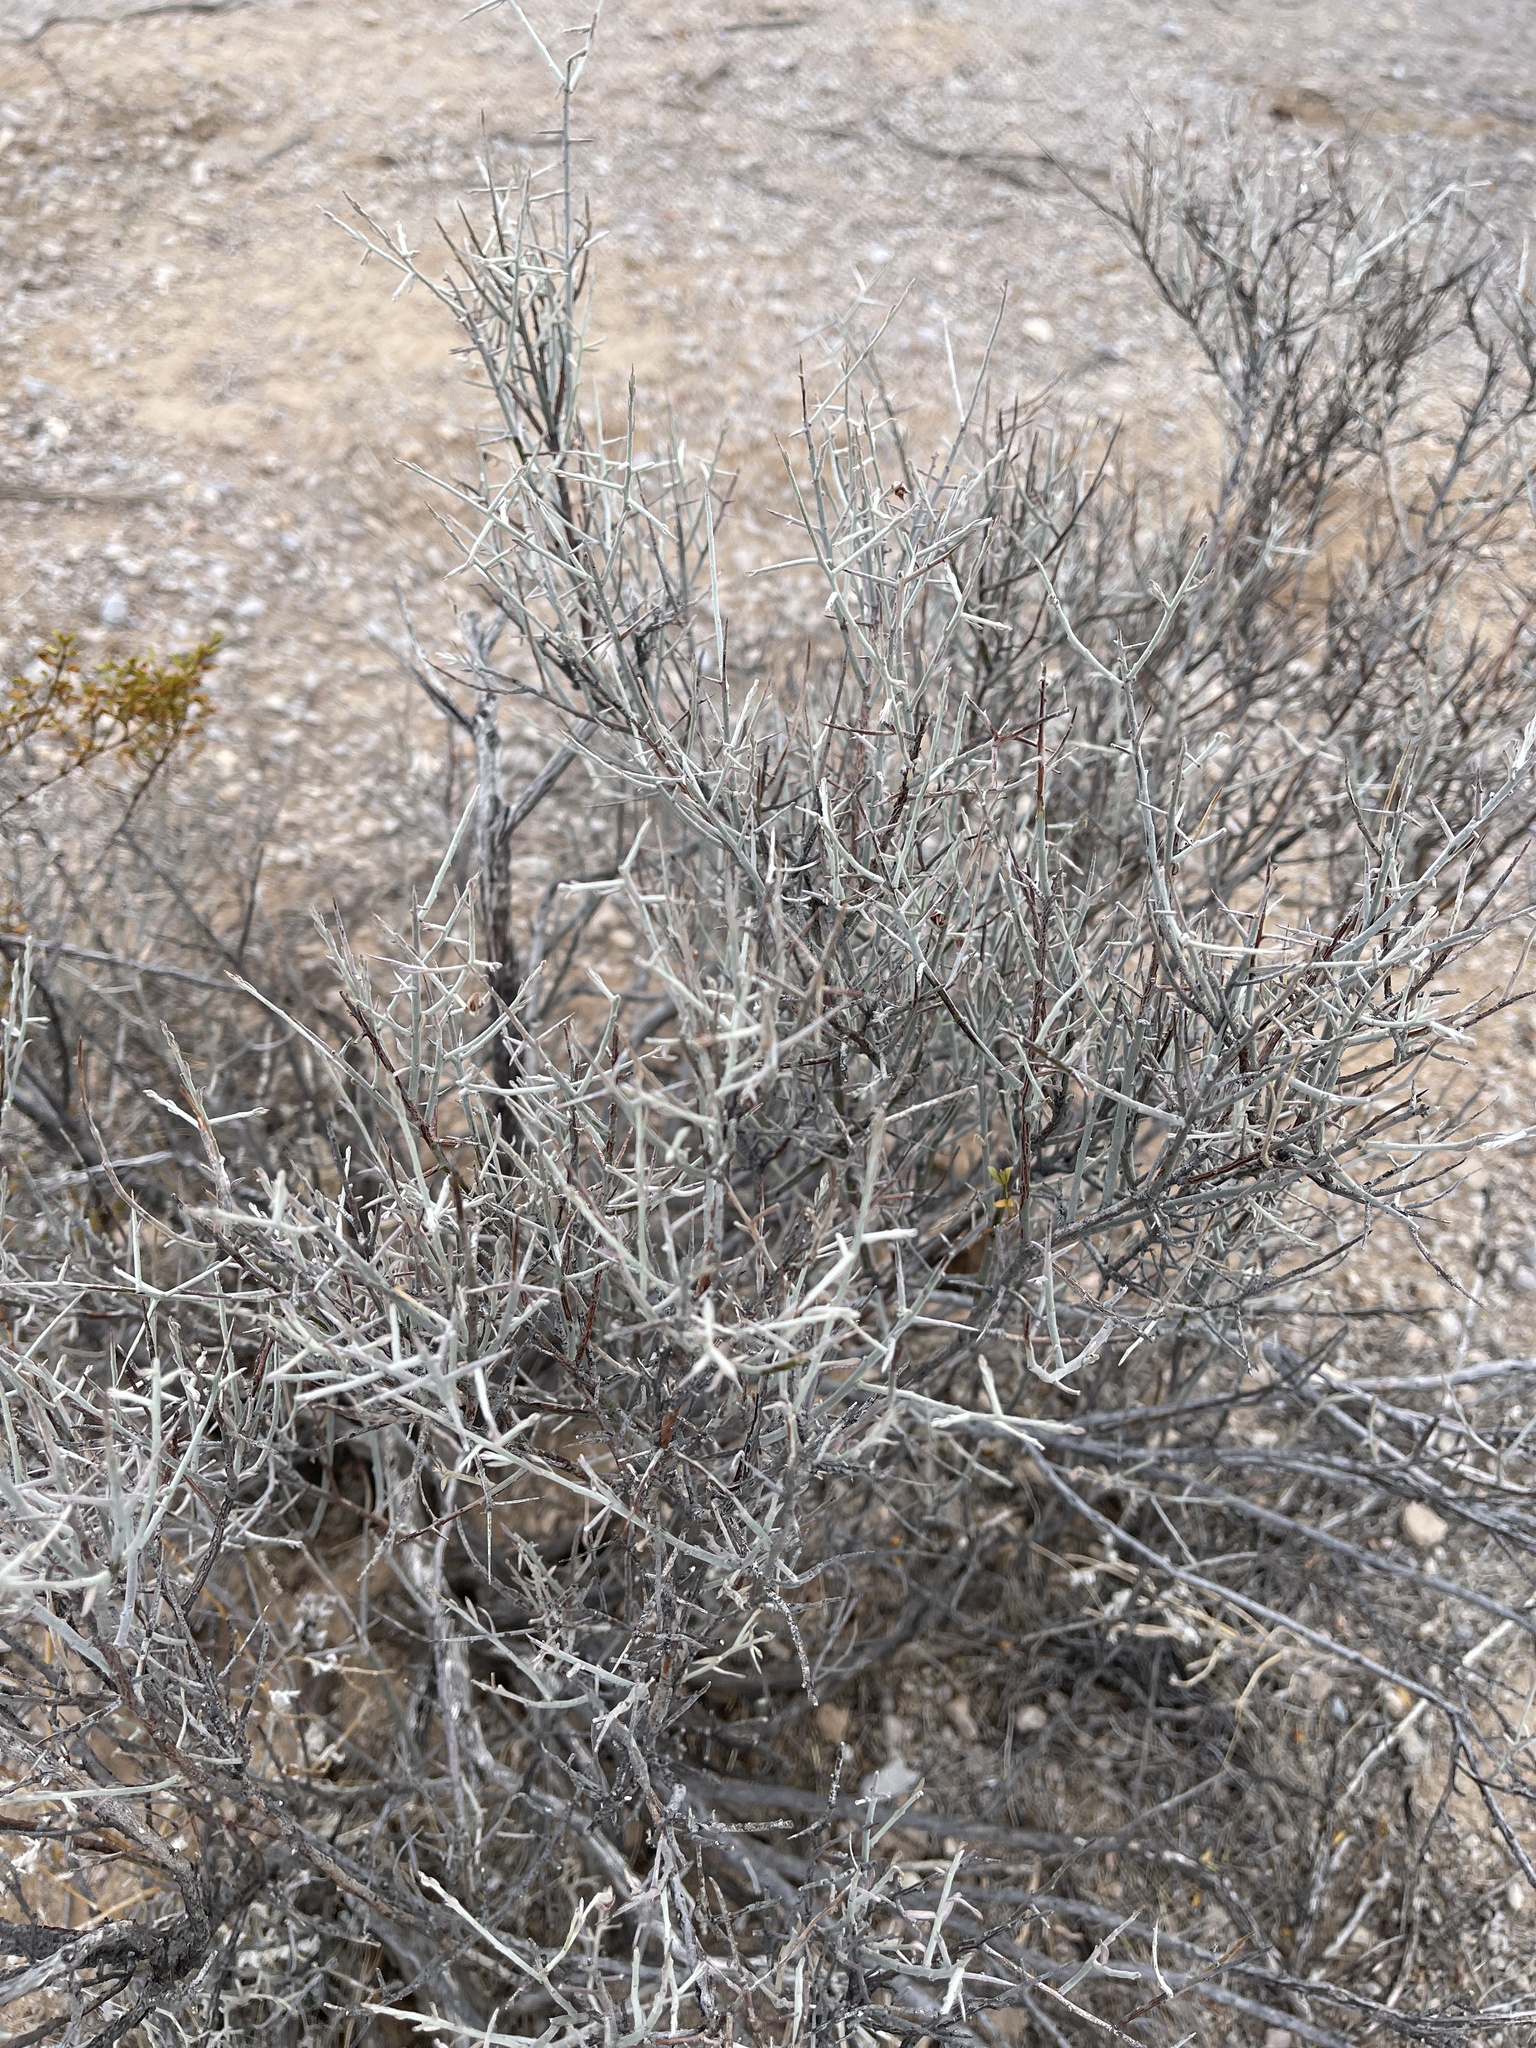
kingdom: Plantae
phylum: Tracheophyta
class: Magnoliopsida
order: Rosales
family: Rhamnaceae
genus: Sarcomphalus
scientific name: Sarcomphalus obtusifolius
